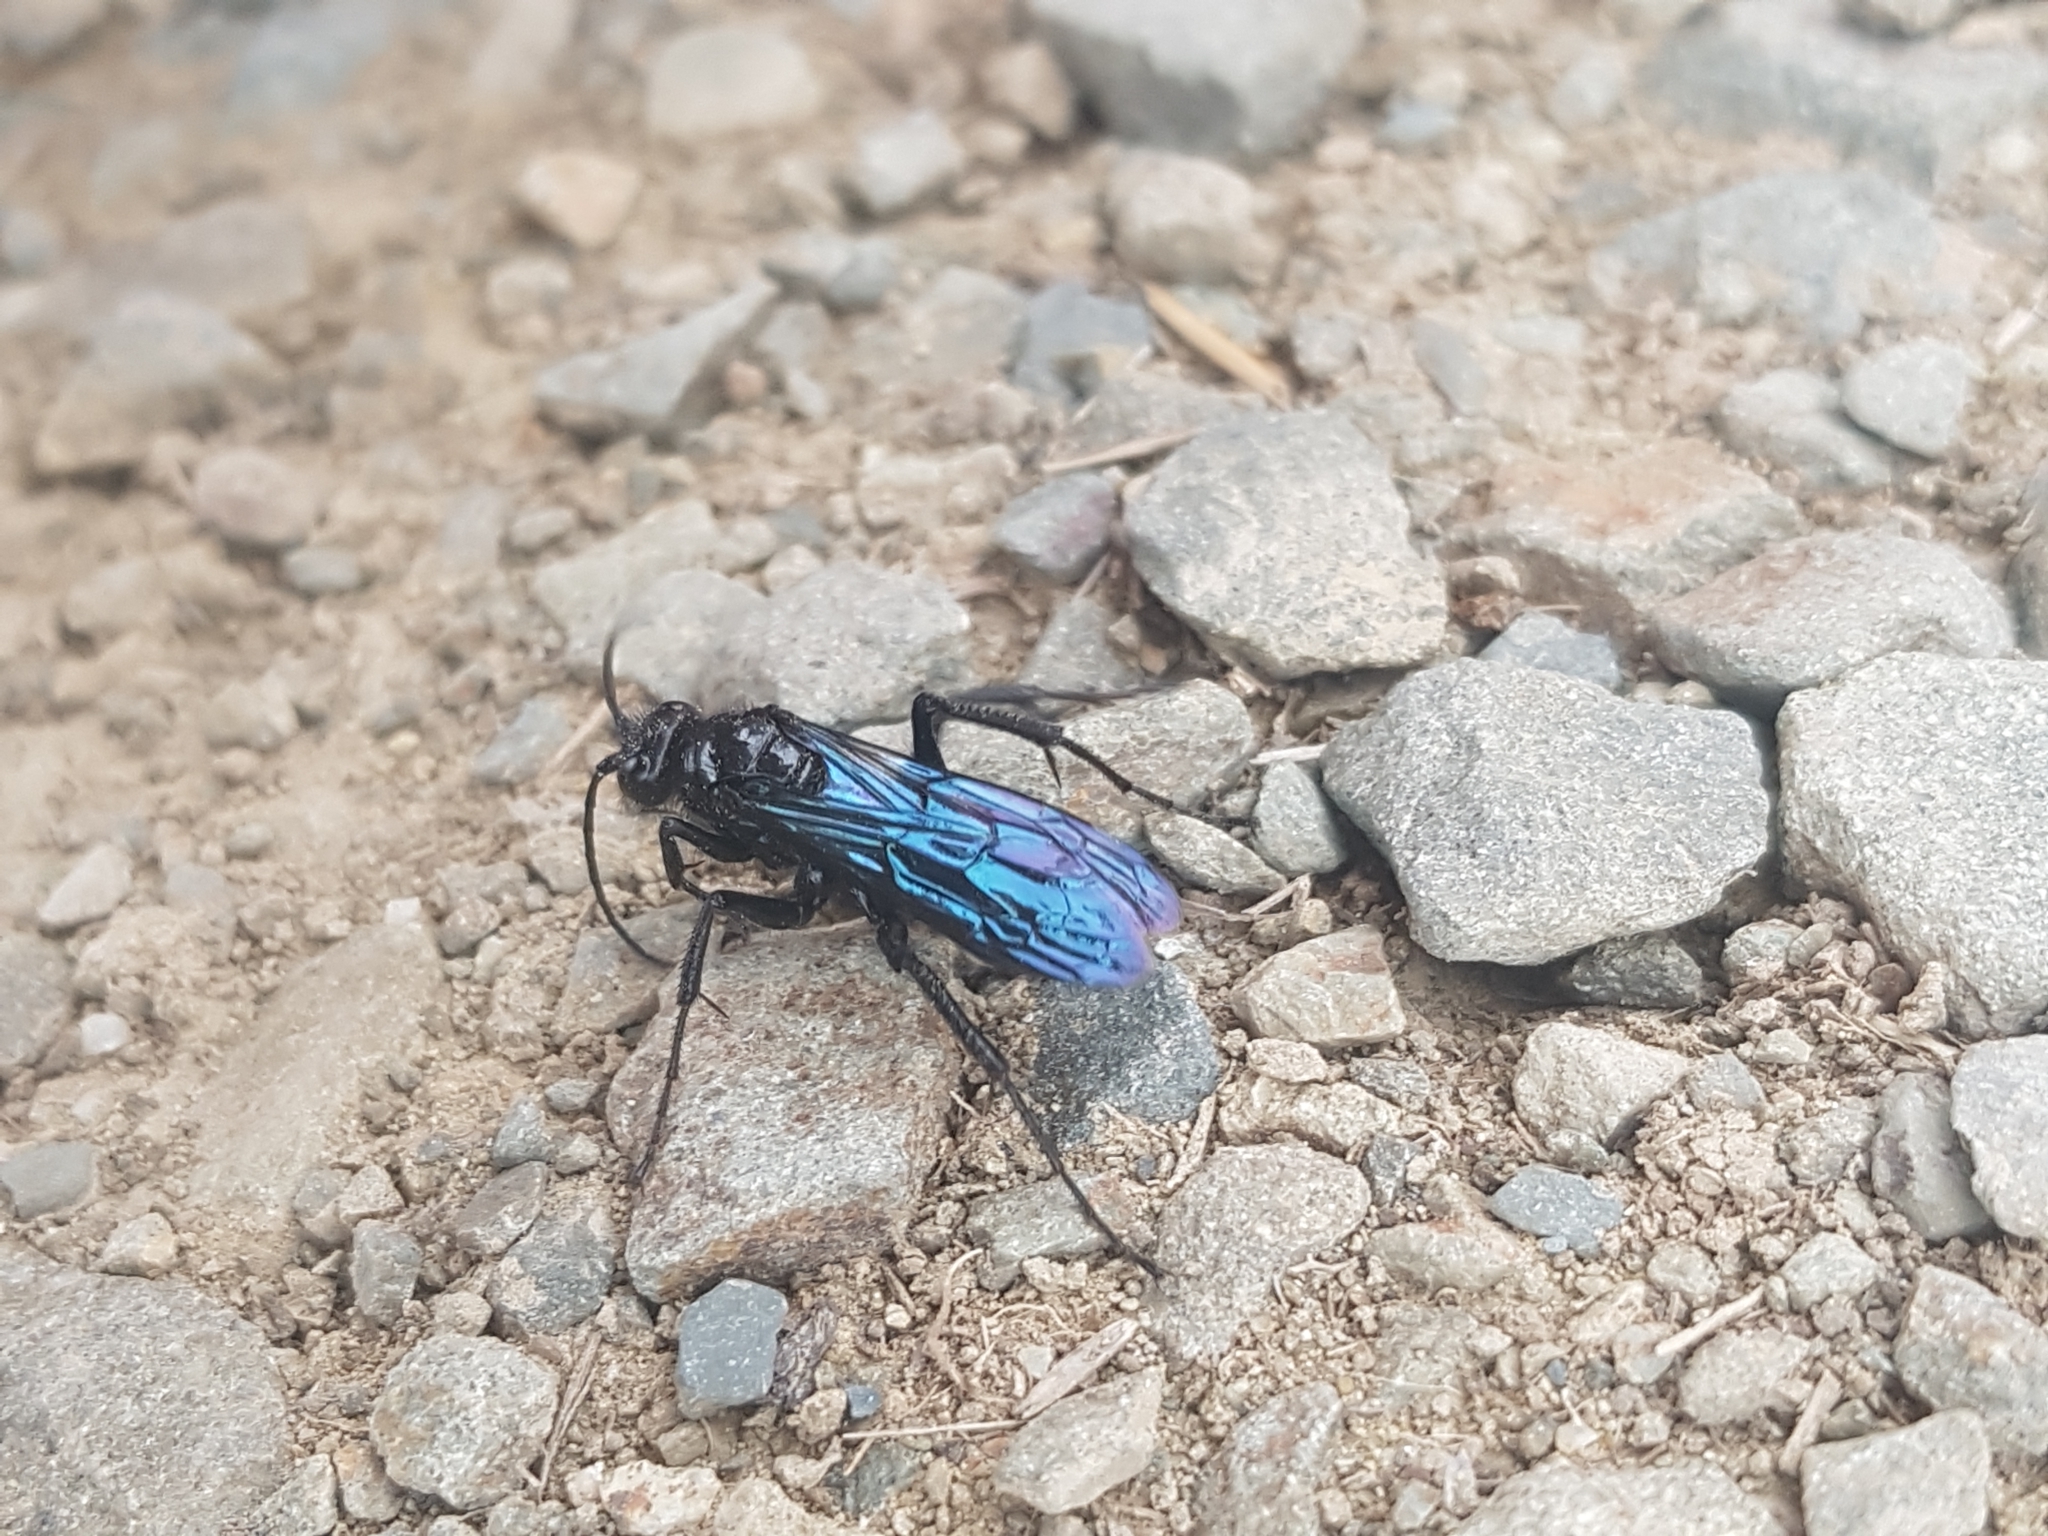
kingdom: Animalia
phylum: Arthropoda
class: Insecta
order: Hymenoptera
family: Pompilidae
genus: Priocnemis
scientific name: Priocnemis monachus
